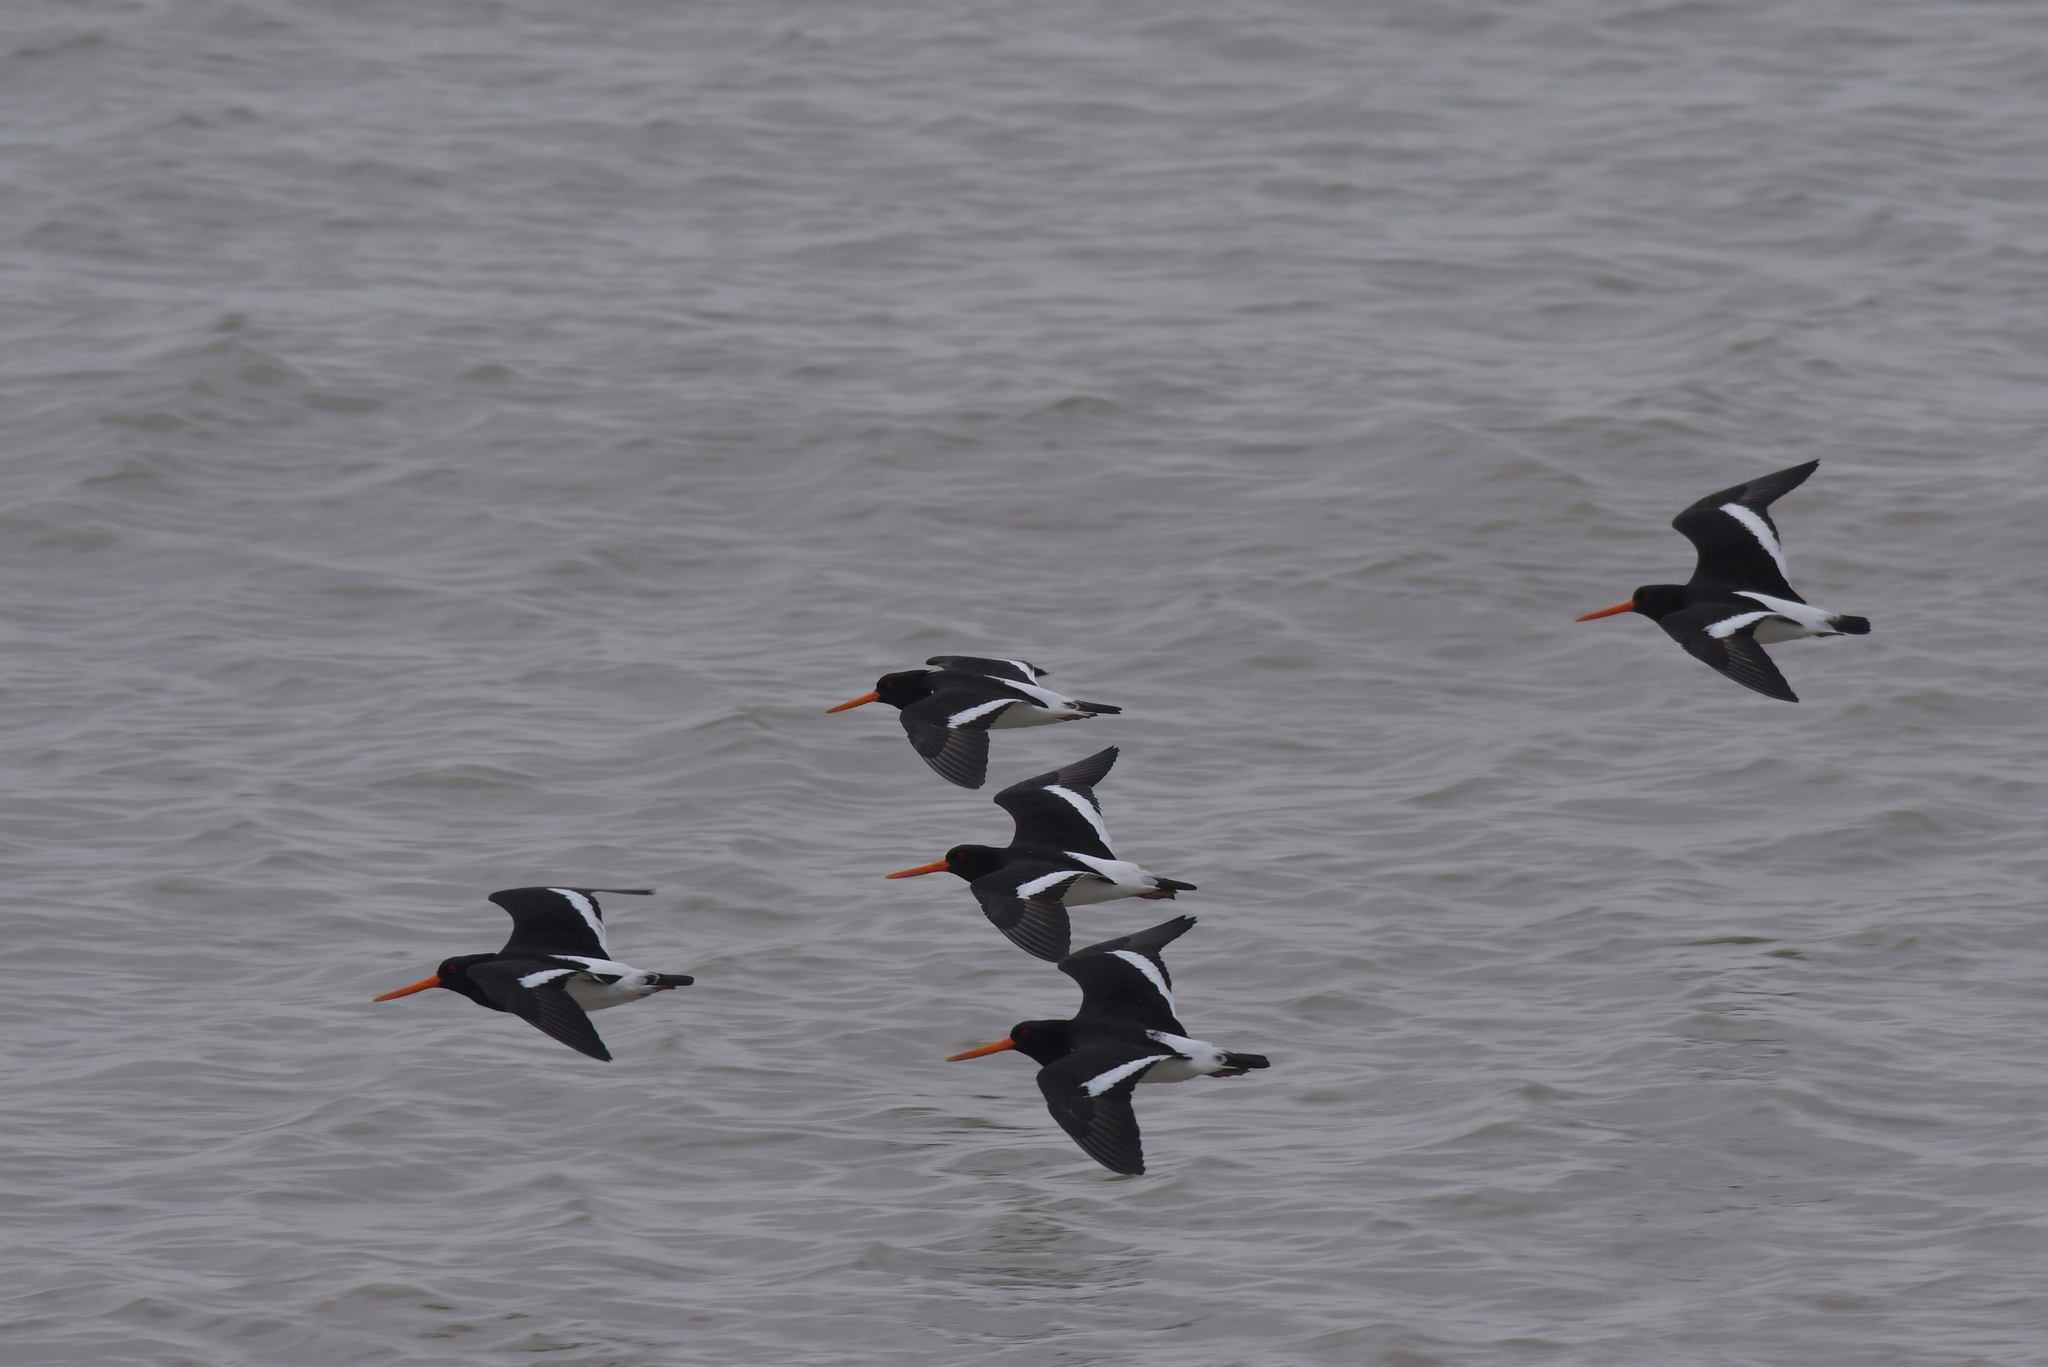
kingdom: Animalia
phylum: Chordata
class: Aves
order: Charadriiformes
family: Haematopodidae
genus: Haematopus
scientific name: Haematopus finschi
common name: South island oystercatcher
